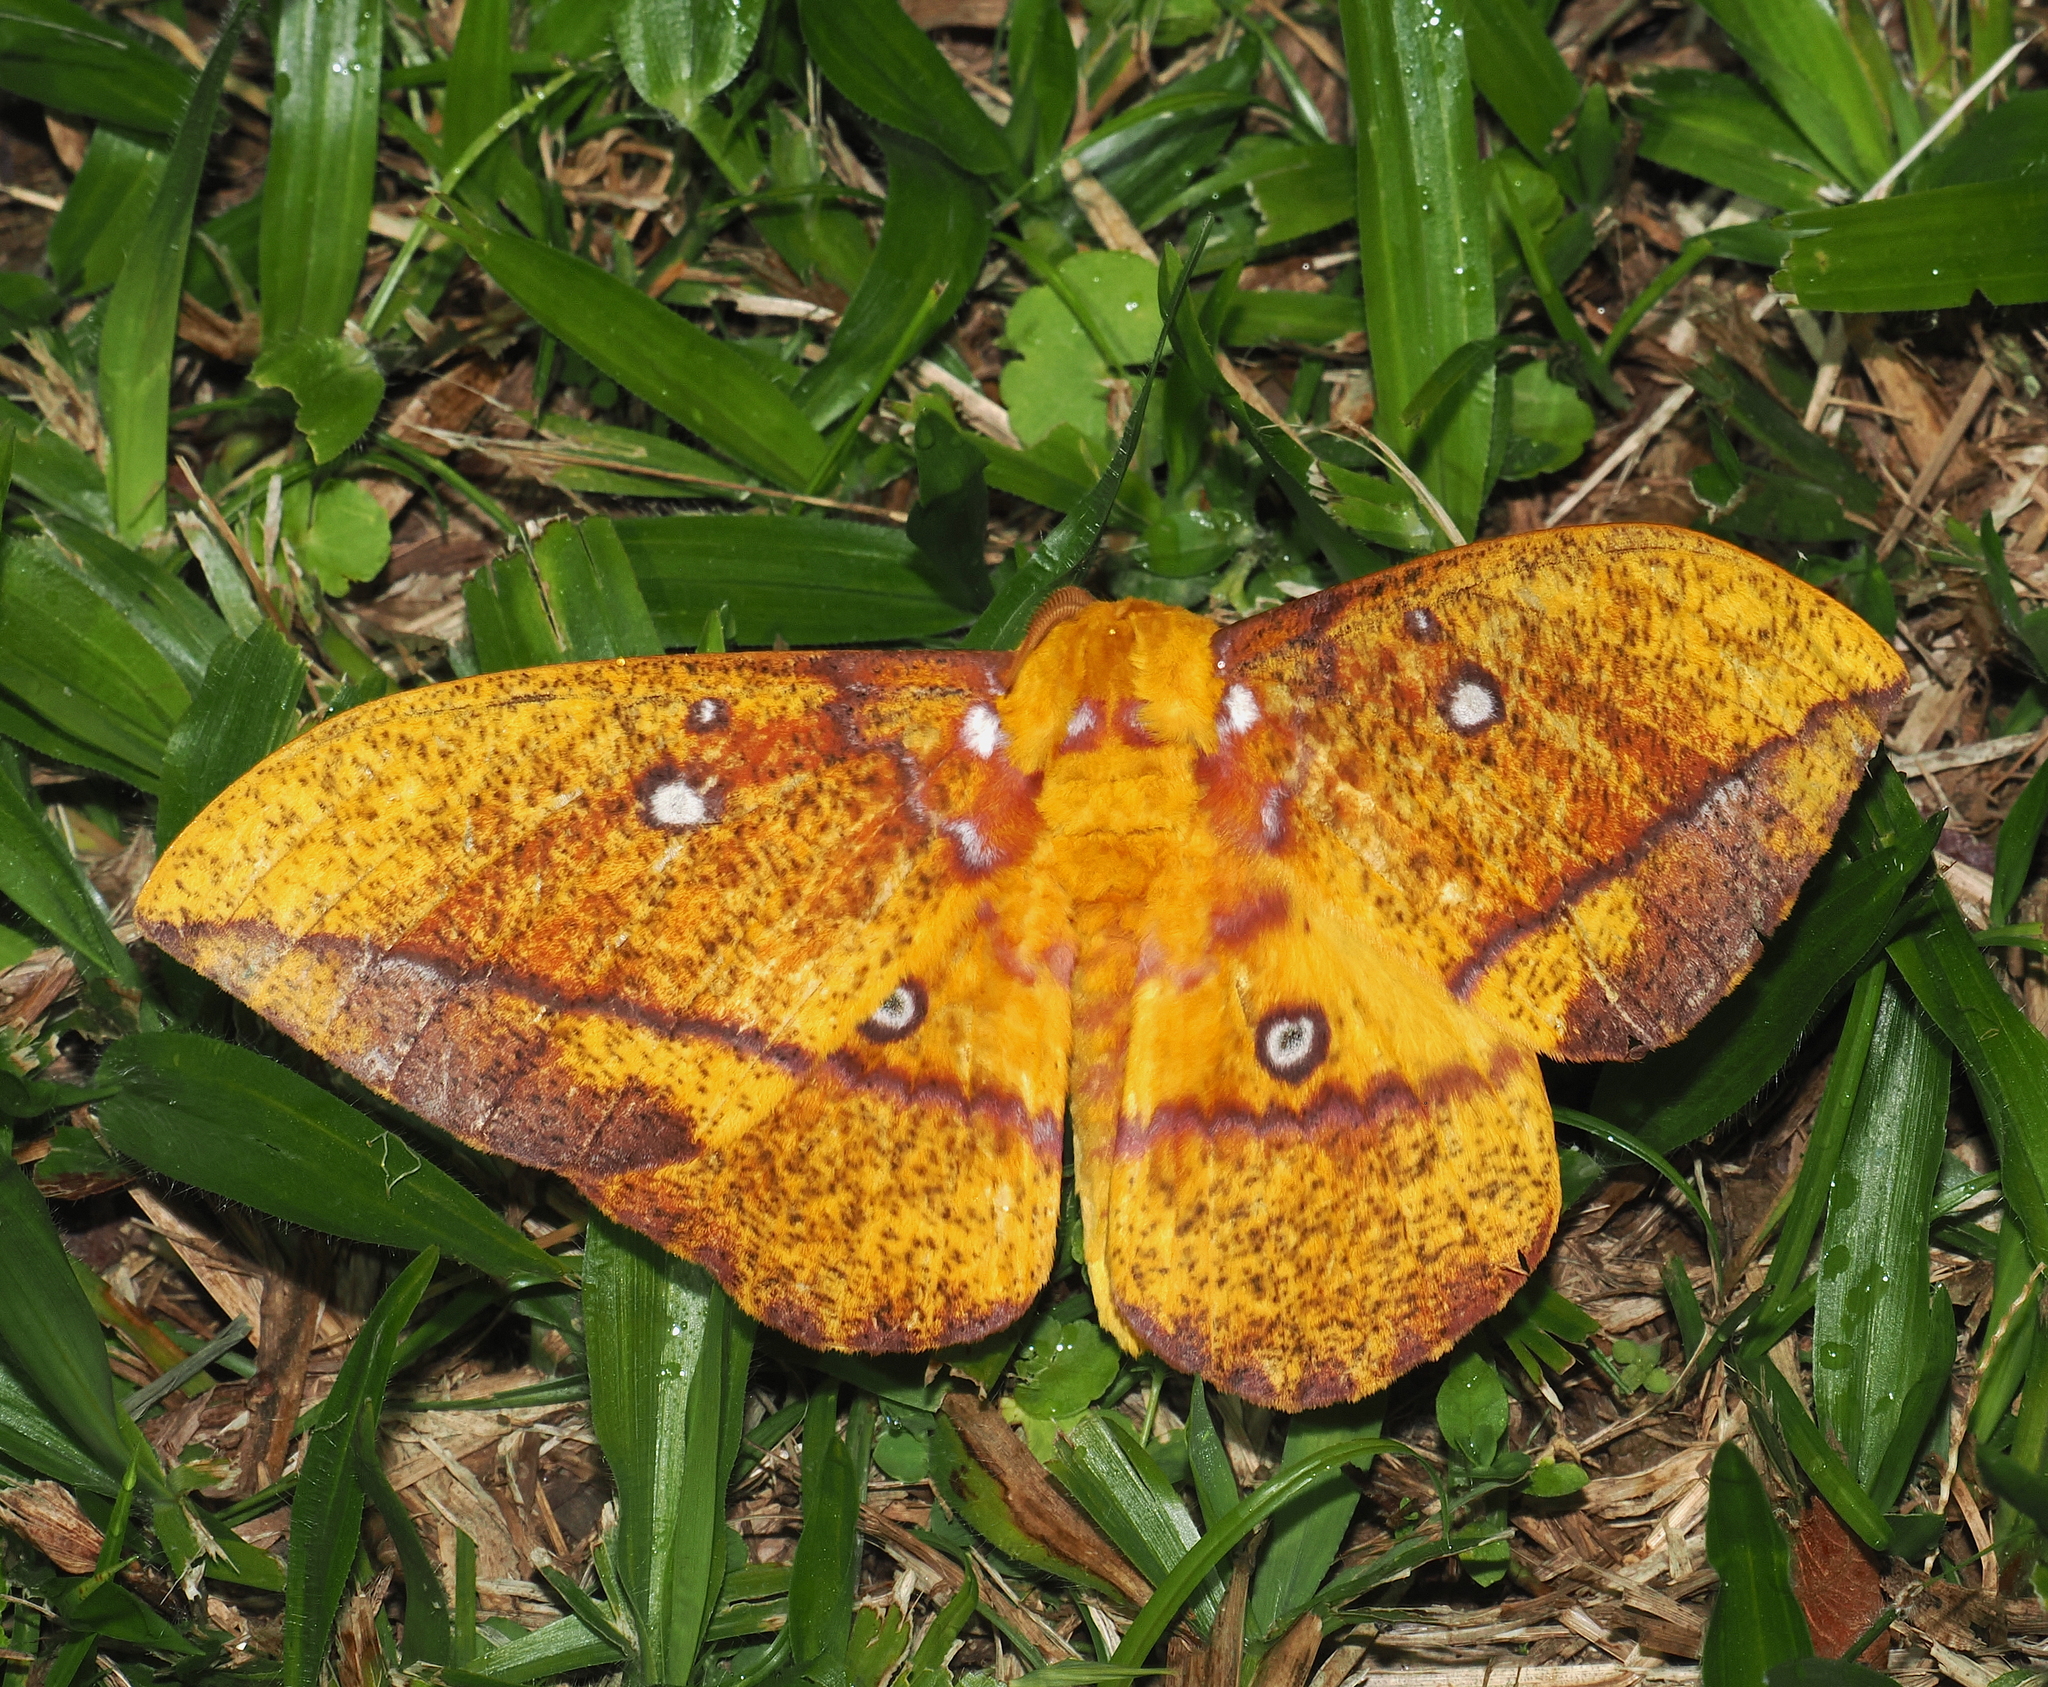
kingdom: Animalia
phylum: Arthropoda
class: Insecta
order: Lepidoptera
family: Saturniidae
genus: Eacles
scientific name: Eacles penelope
